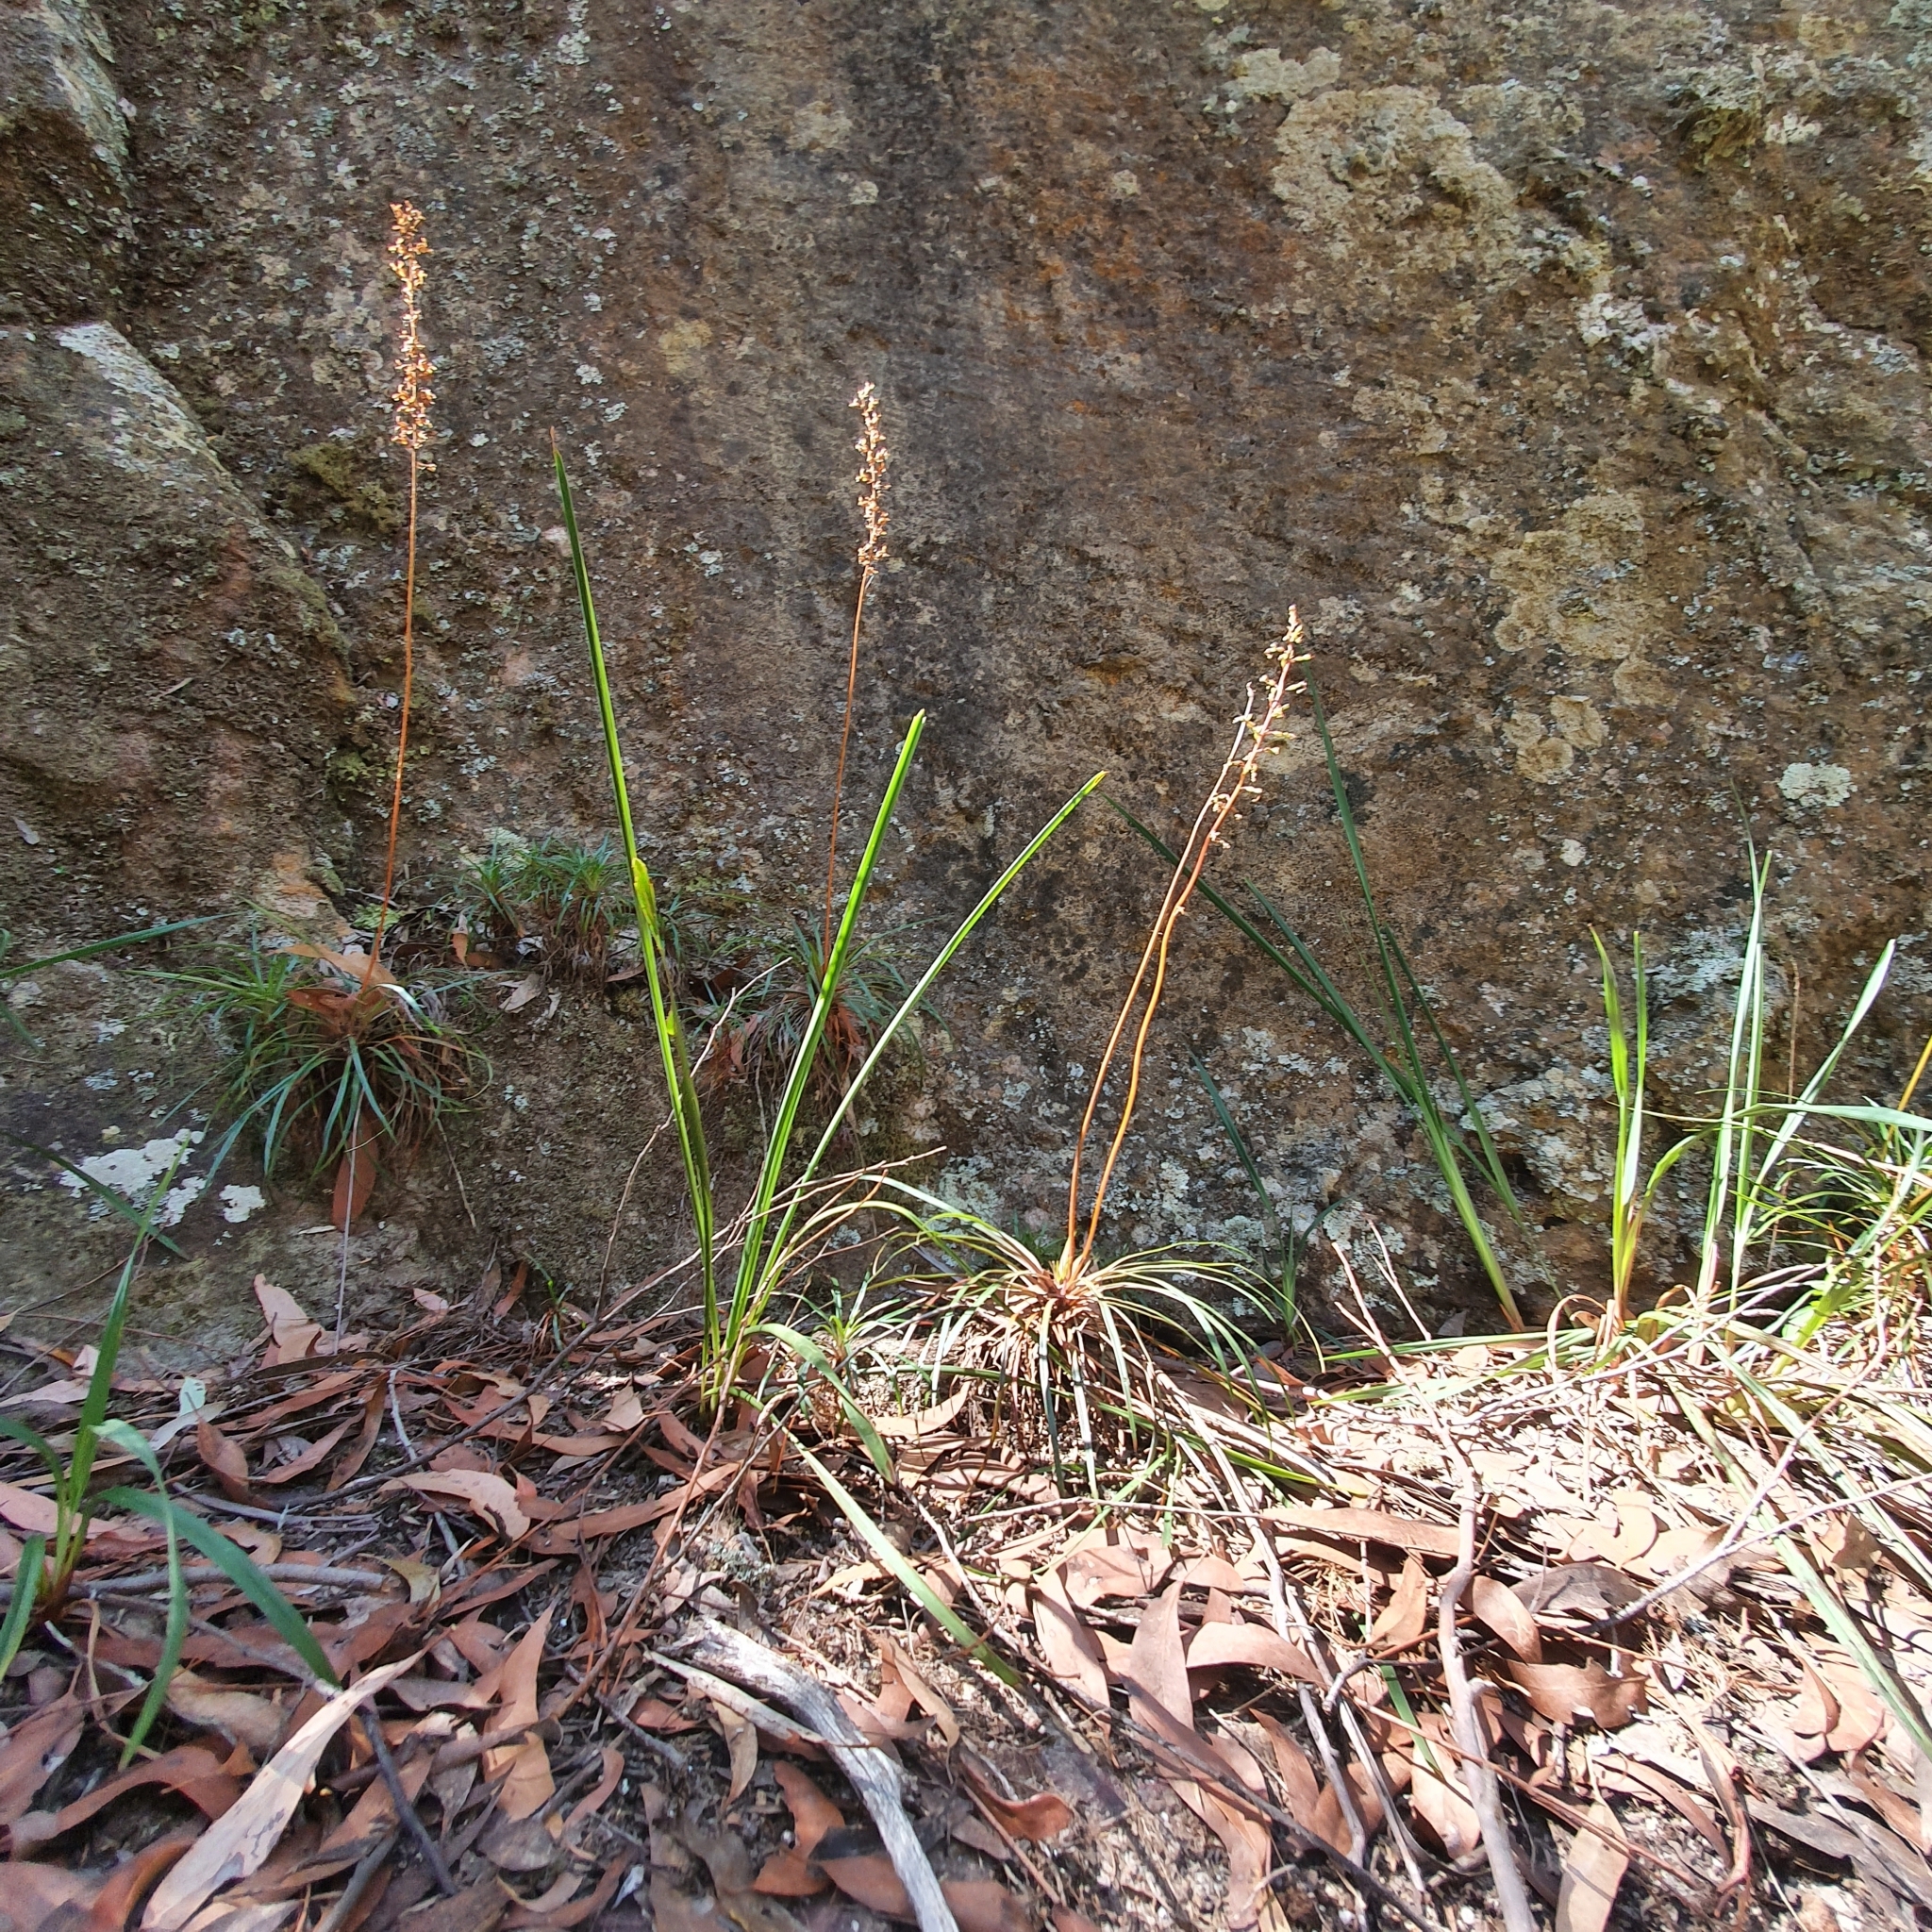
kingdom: Plantae
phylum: Tracheophyta
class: Magnoliopsida
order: Asterales
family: Stylidiaceae
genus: Stylidium
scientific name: Stylidium graminifolium
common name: Grass triggerplant
